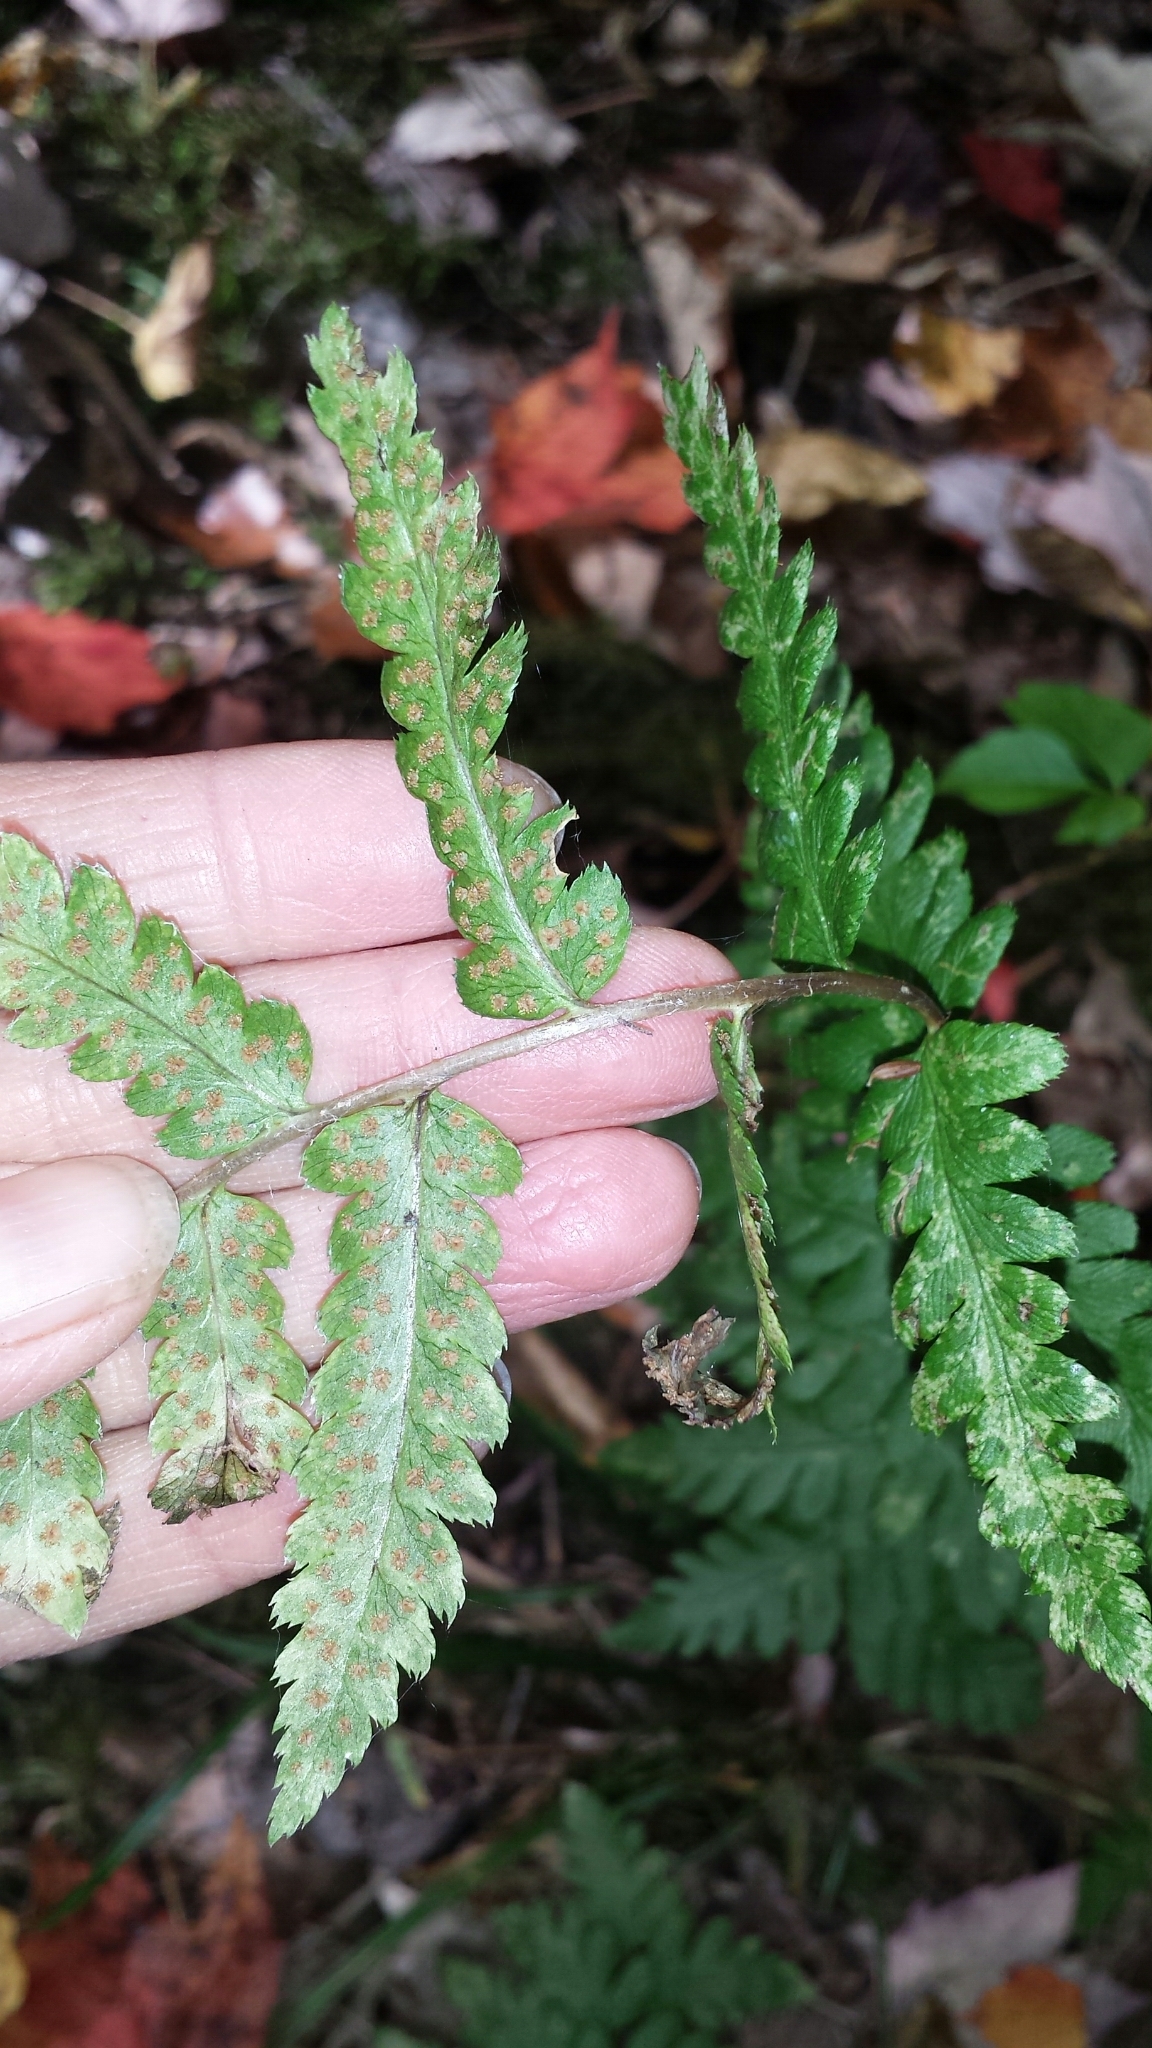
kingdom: Plantae
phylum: Tracheophyta
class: Polypodiopsida
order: Polypodiales
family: Dryopteridaceae
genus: Dryopteris
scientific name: Dryopteris cristata
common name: Crested wood fern
